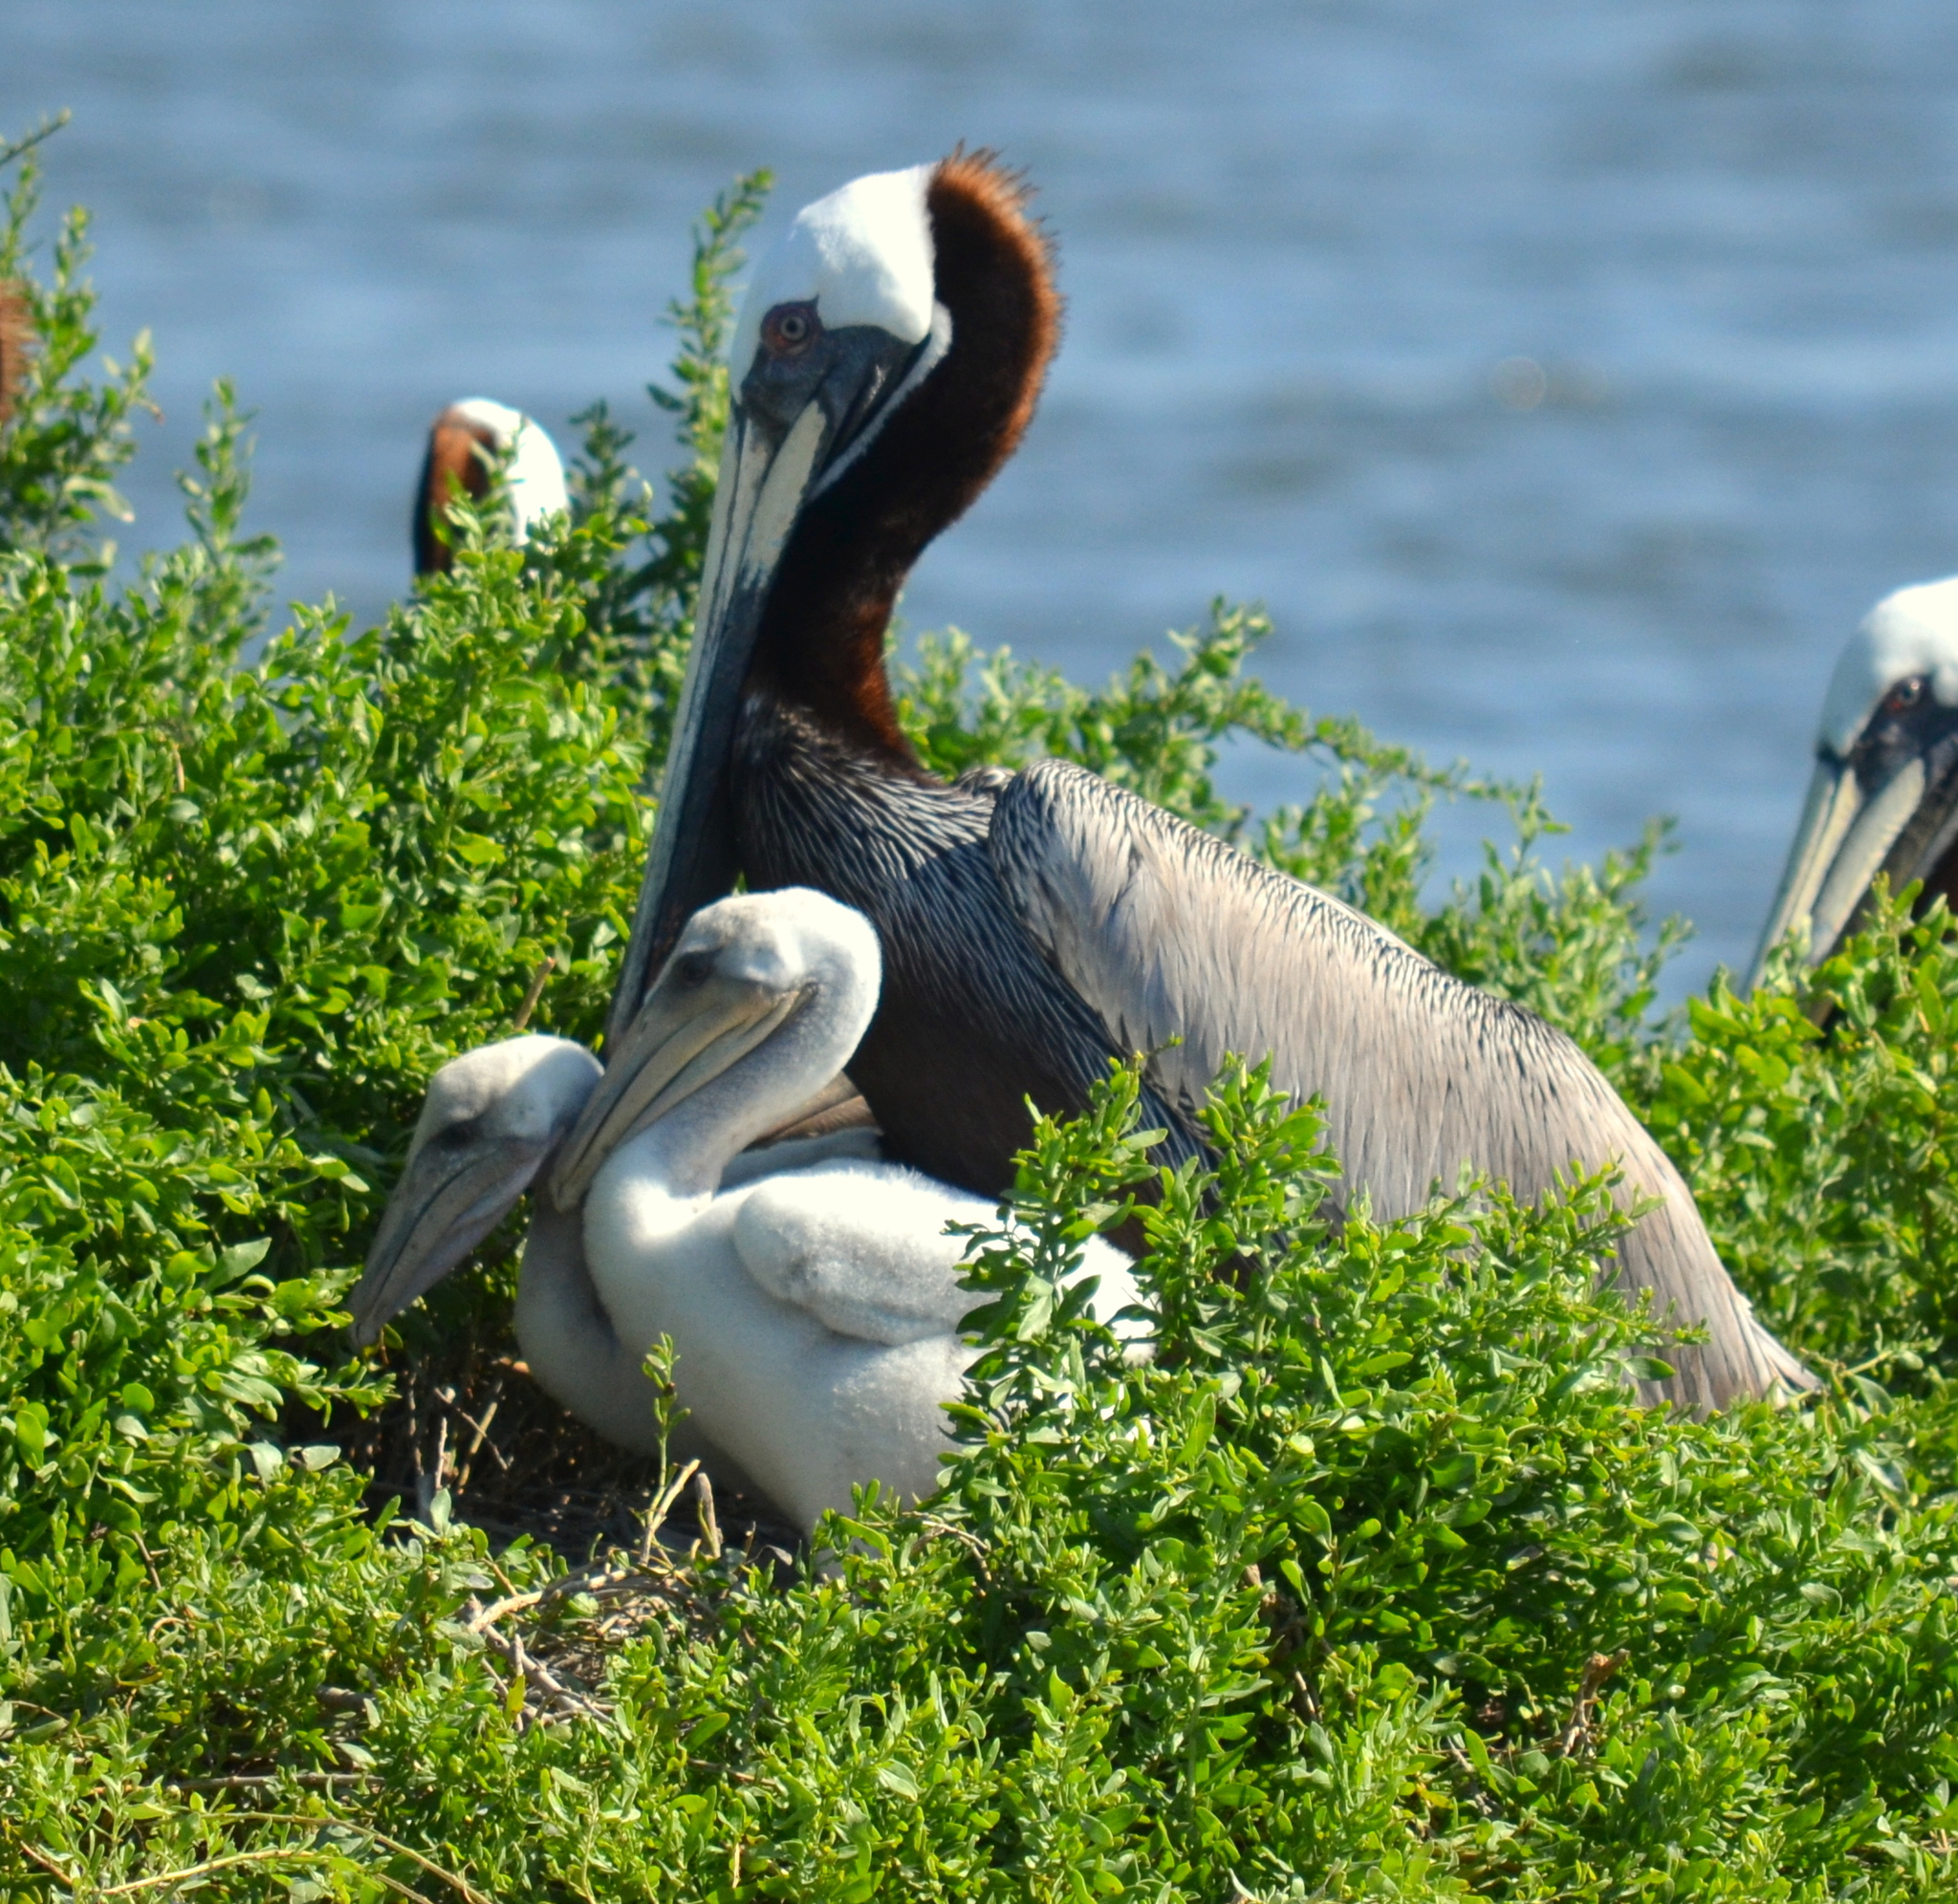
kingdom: Animalia
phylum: Chordata
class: Aves
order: Pelecaniformes
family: Pelecanidae
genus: Pelecanus
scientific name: Pelecanus occidentalis
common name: Brown pelican
